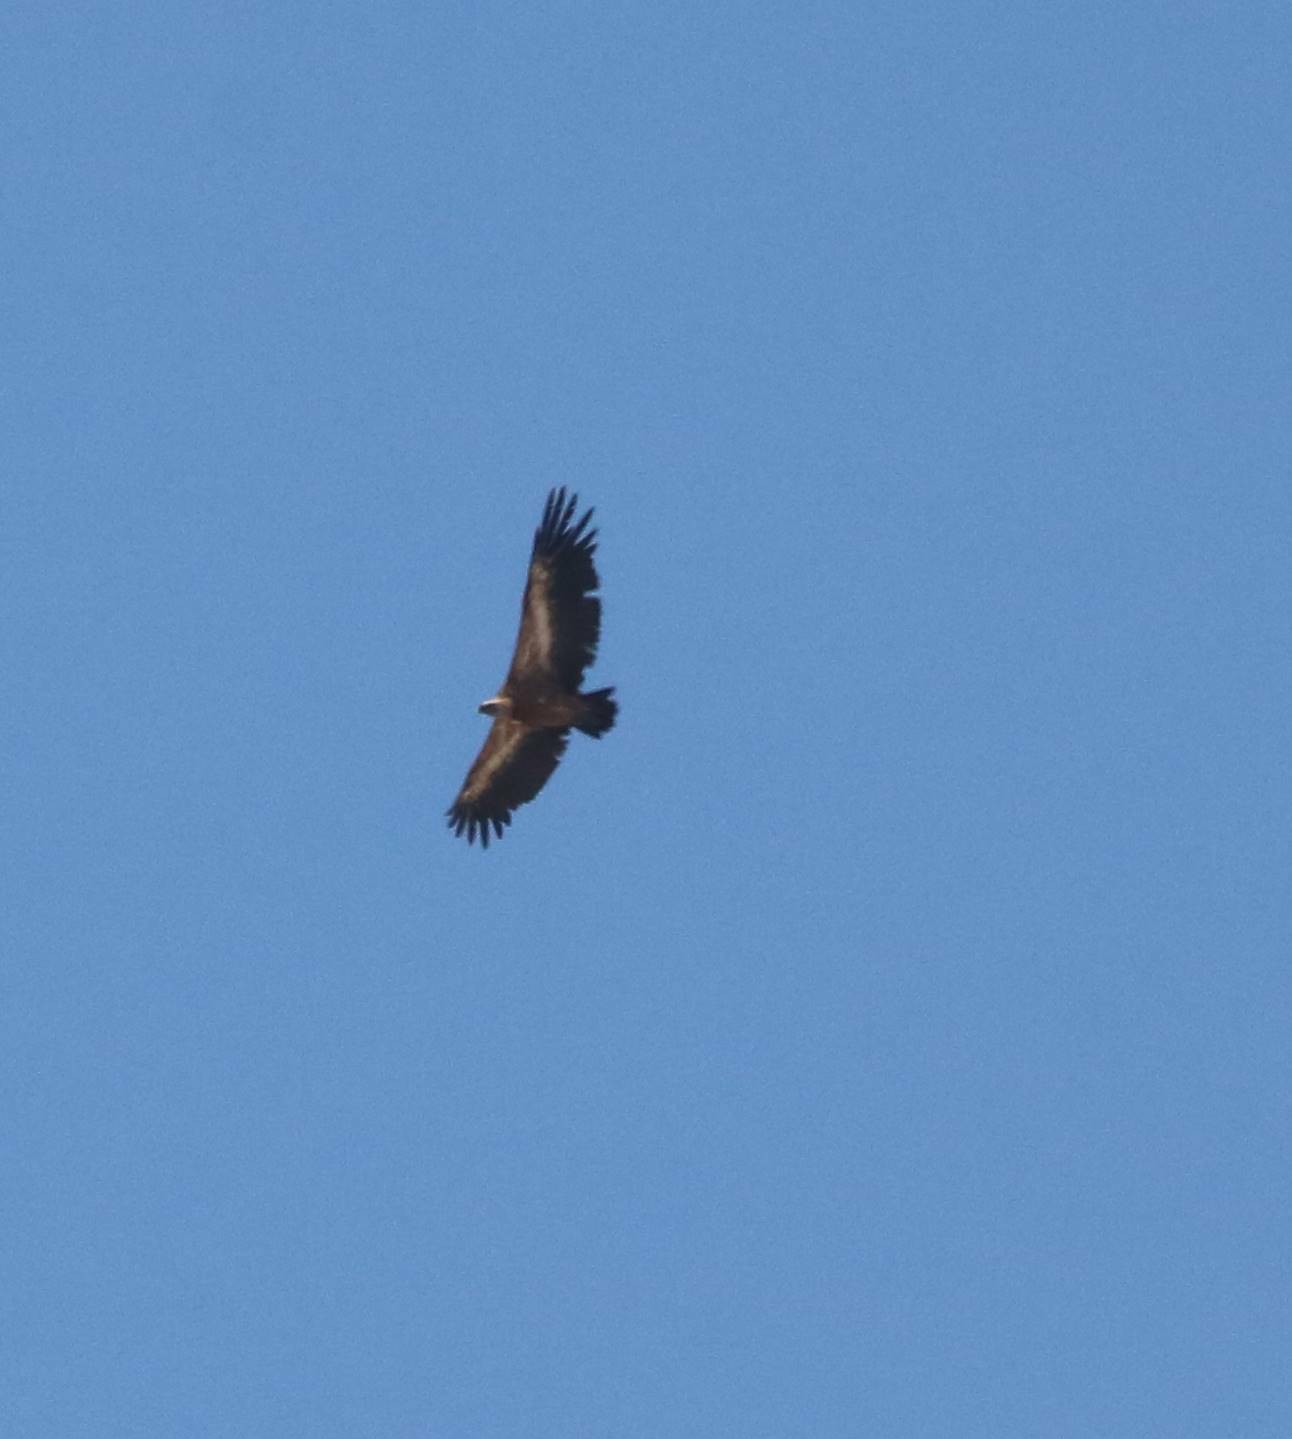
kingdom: Animalia
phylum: Chordata
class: Aves
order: Accipitriformes
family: Accipitridae
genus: Gyps
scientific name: Gyps fulvus
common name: Griffon vulture
